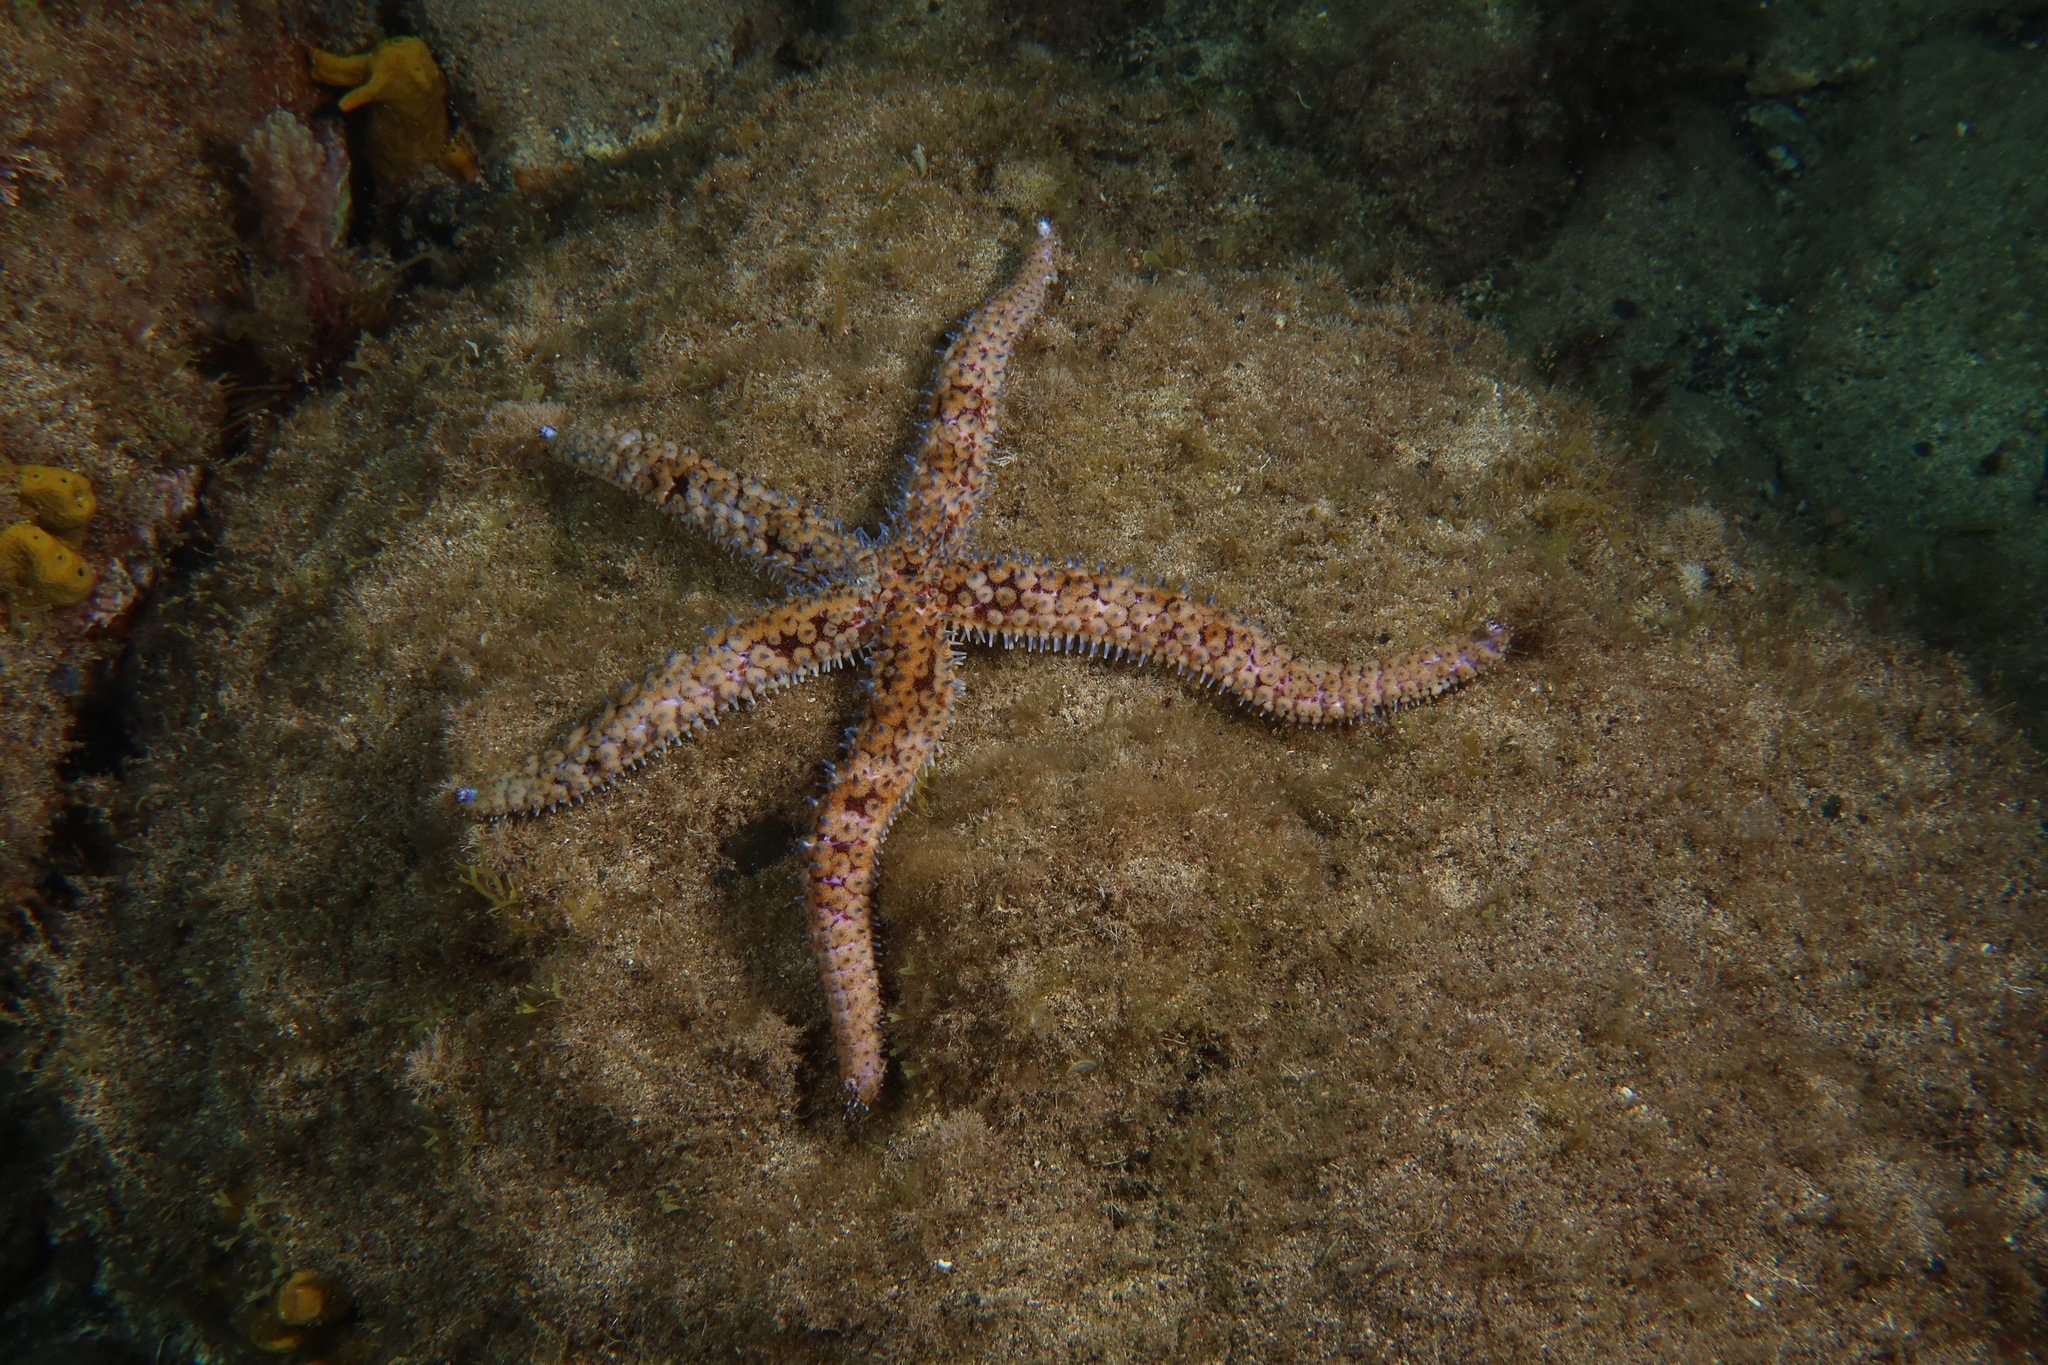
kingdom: Animalia
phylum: Echinodermata
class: Asteroidea
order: Forcipulatida
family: Asteriidae
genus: Marthasterias
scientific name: Marthasterias glacialis
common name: Spiny starfish
